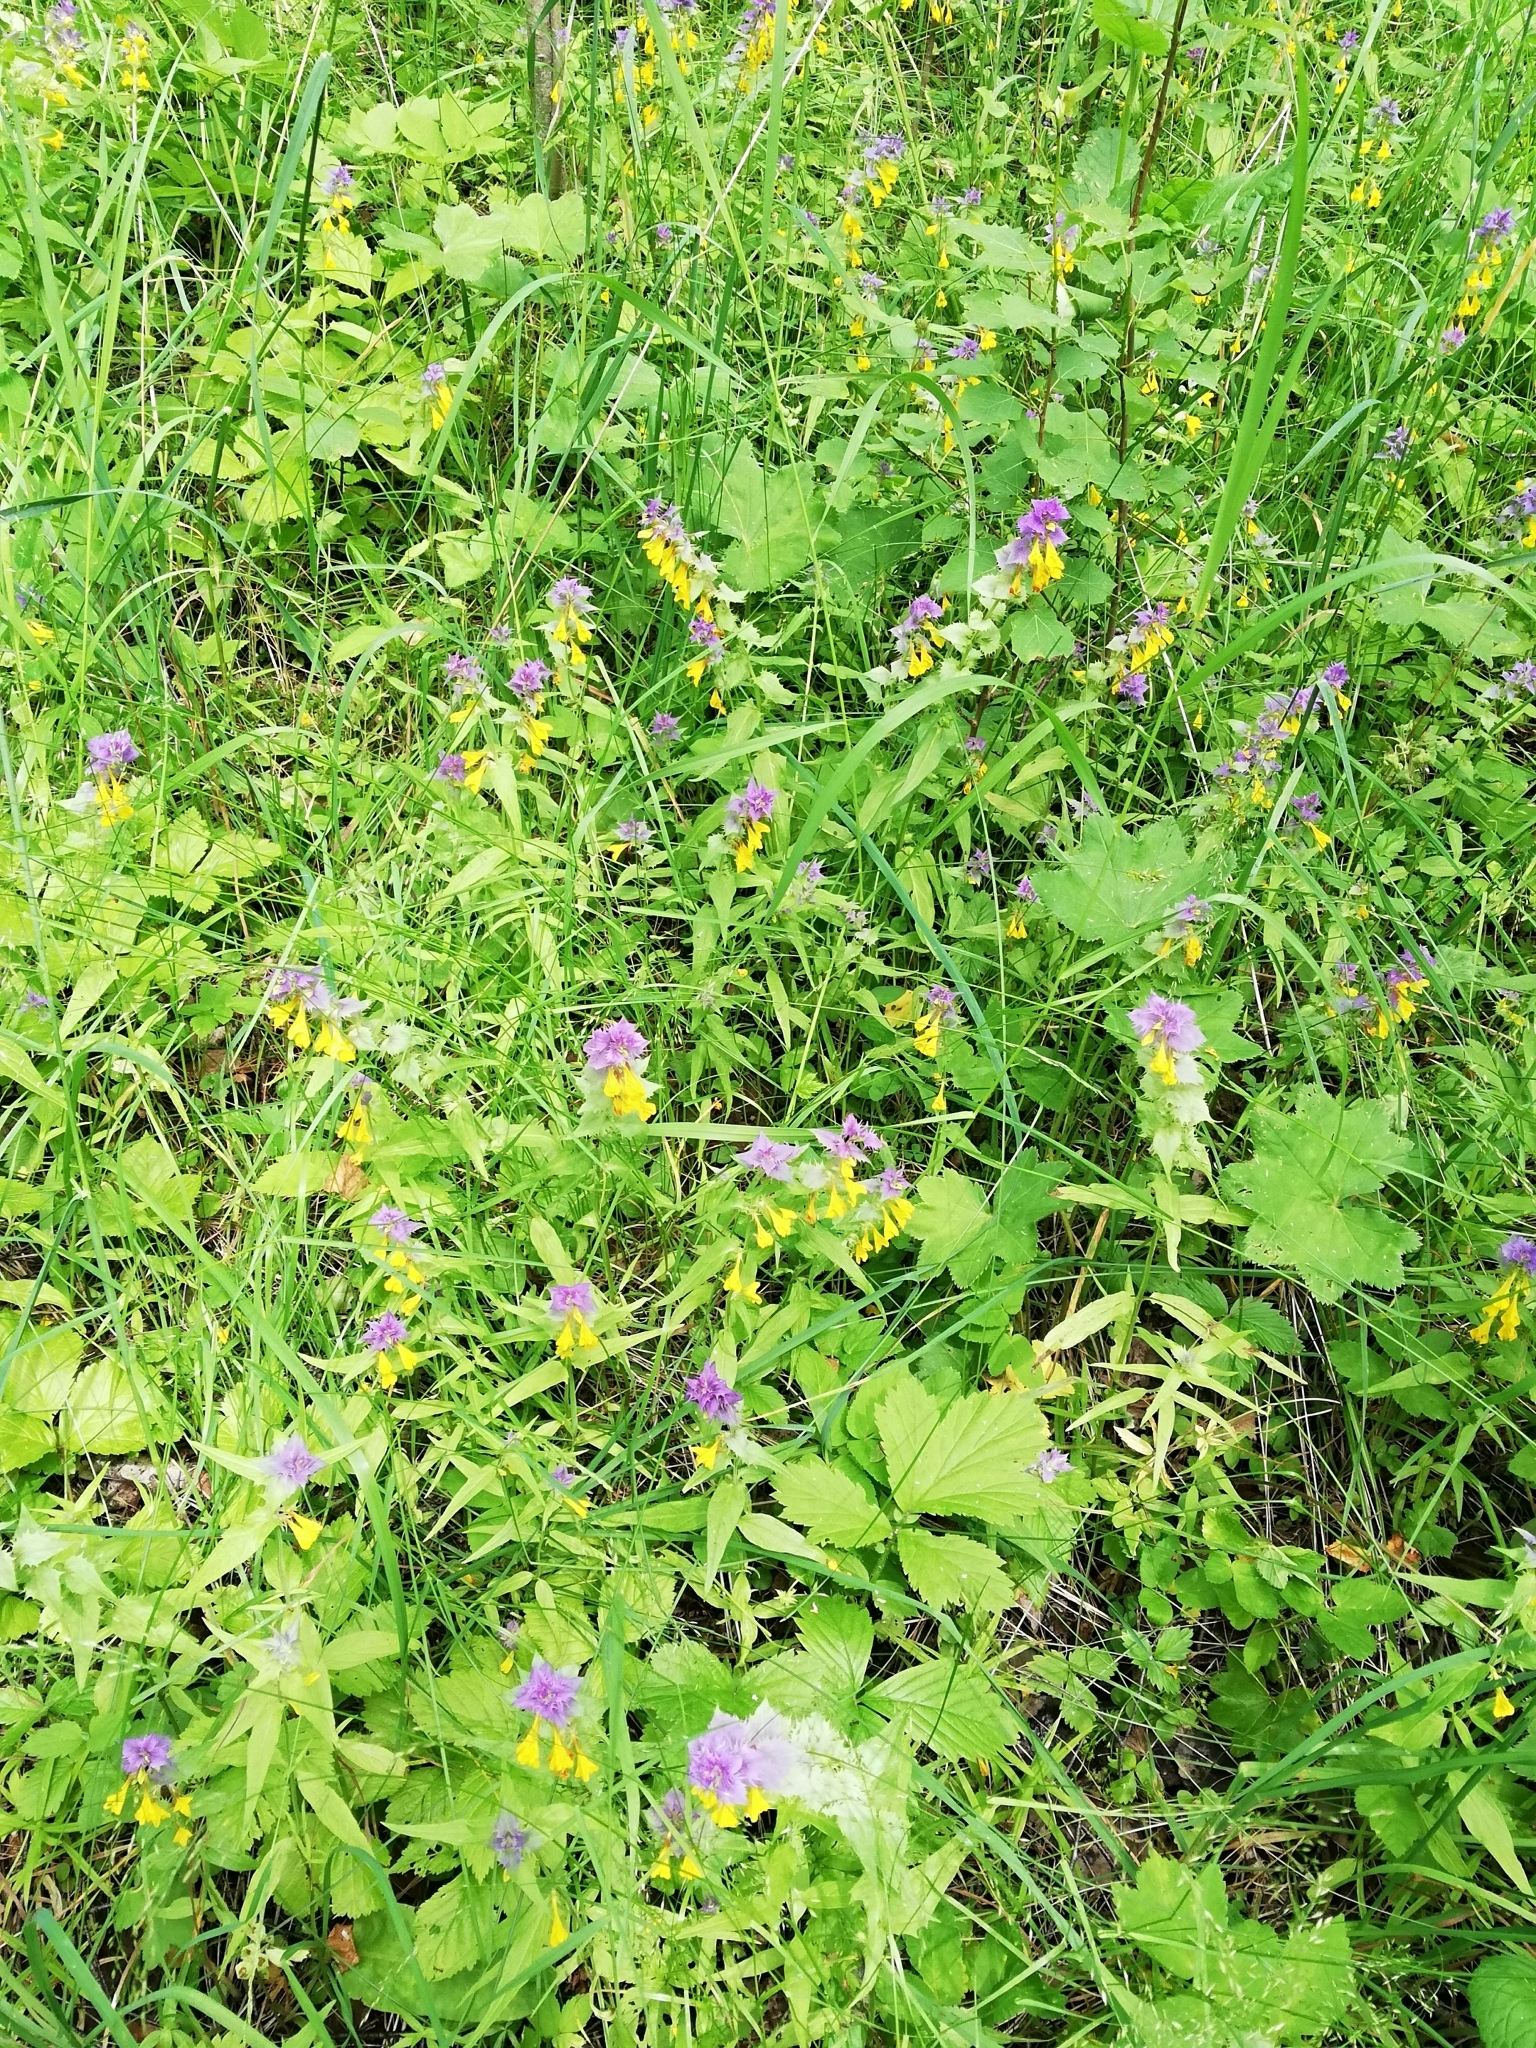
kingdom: Plantae
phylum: Tracheophyta
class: Magnoliopsida
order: Lamiales
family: Orobanchaceae
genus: Melampyrum
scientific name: Melampyrum nemorosum
